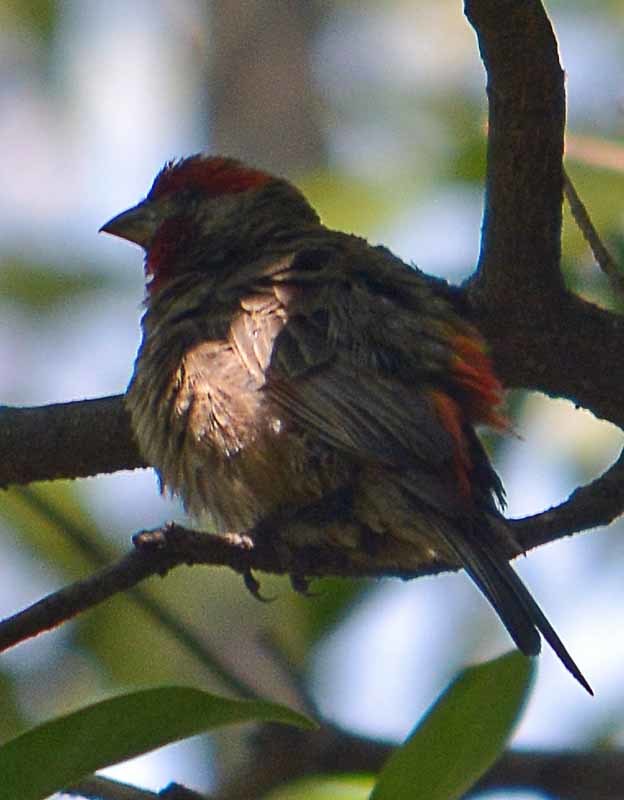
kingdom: Animalia
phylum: Chordata
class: Aves
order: Passeriformes
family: Fringillidae
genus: Haemorhous
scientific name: Haemorhous mexicanus
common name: House finch
